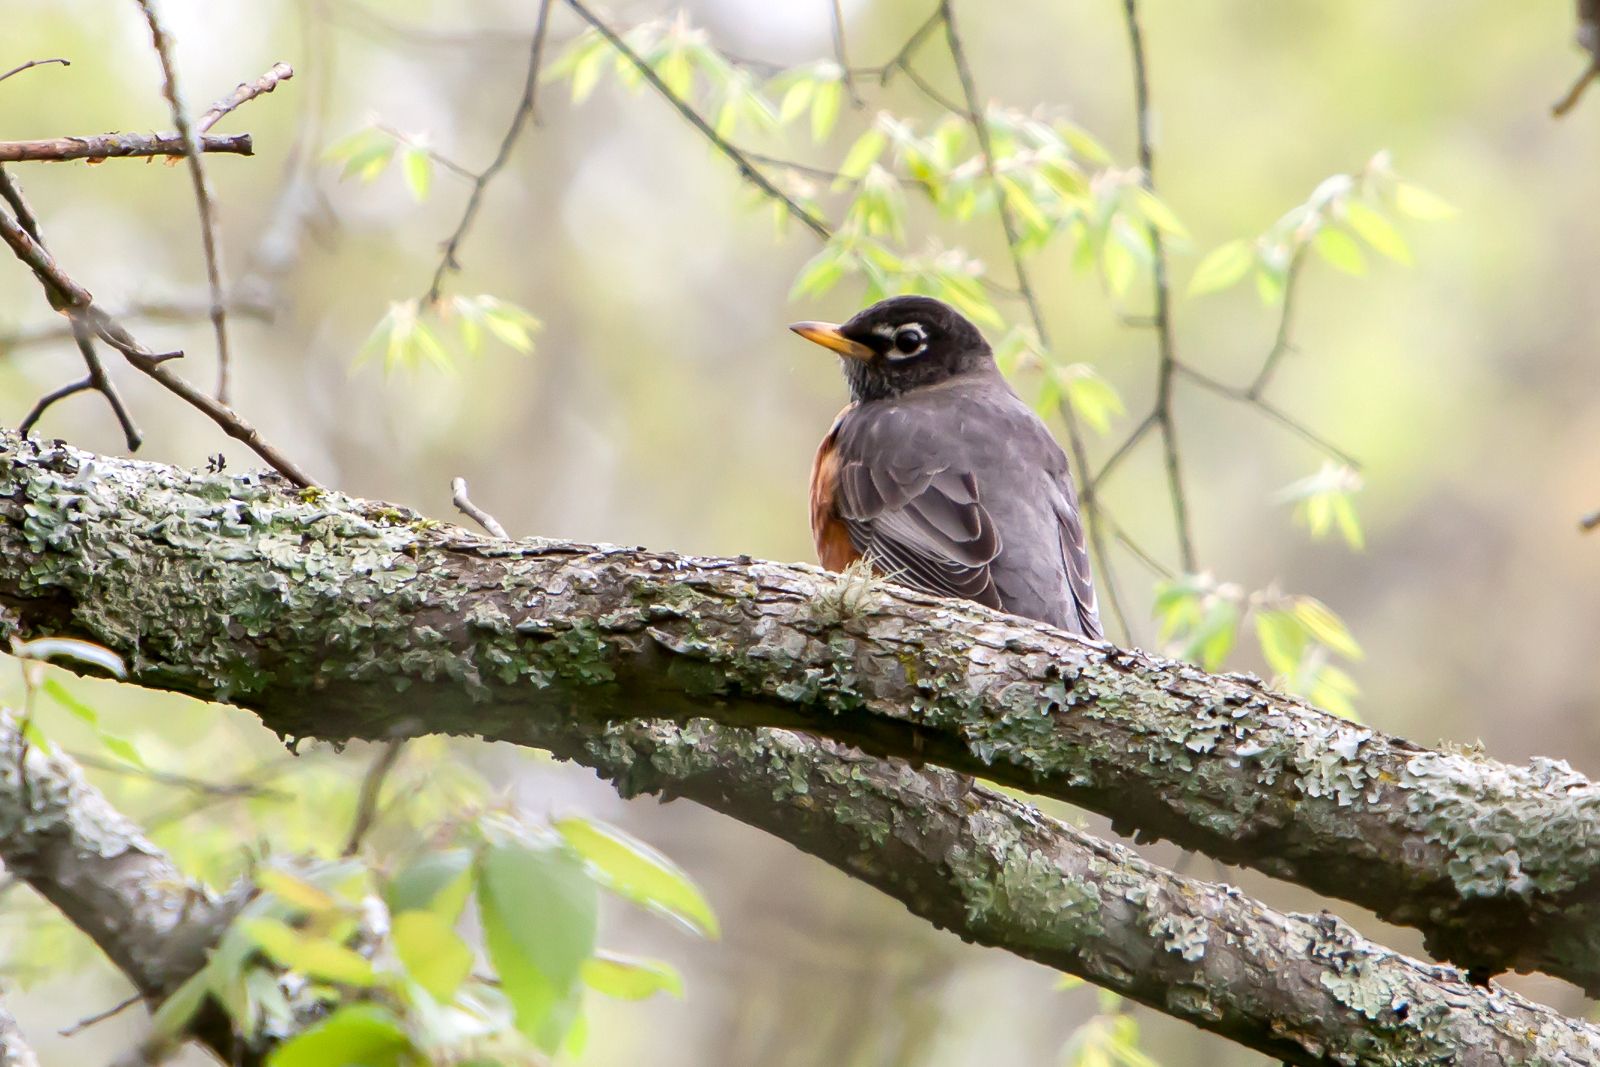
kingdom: Animalia
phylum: Chordata
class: Aves
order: Passeriformes
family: Turdidae
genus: Turdus
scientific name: Turdus migratorius
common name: American robin
